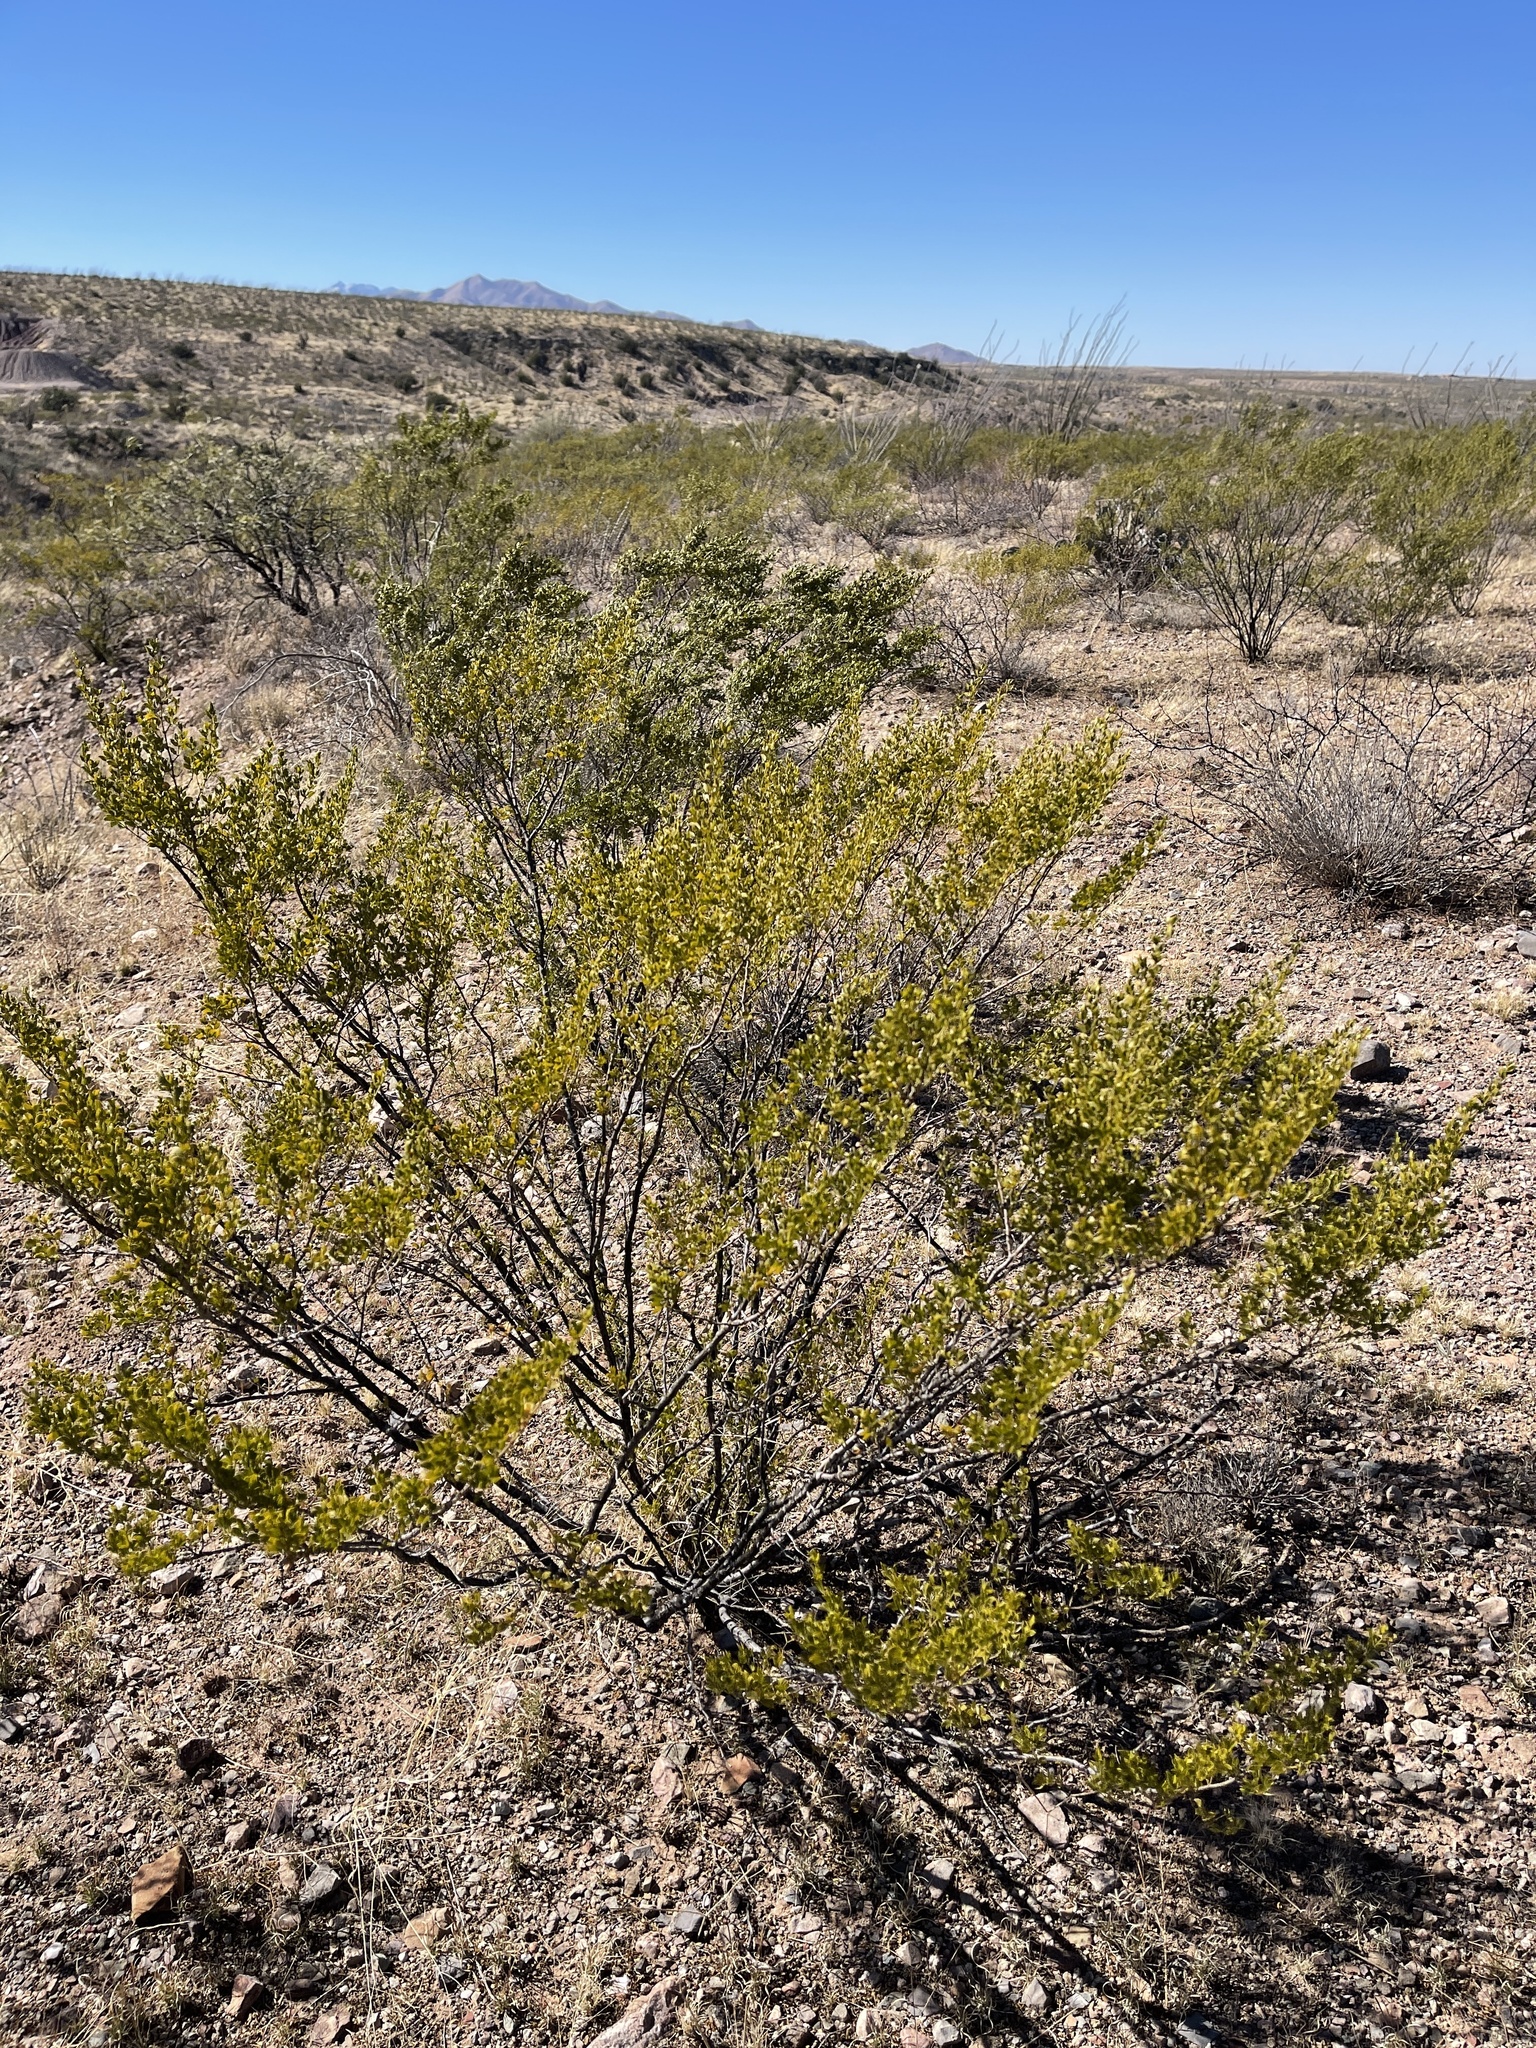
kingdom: Plantae
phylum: Tracheophyta
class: Magnoliopsida
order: Zygophyllales
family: Zygophyllaceae
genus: Larrea
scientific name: Larrea tridentata
